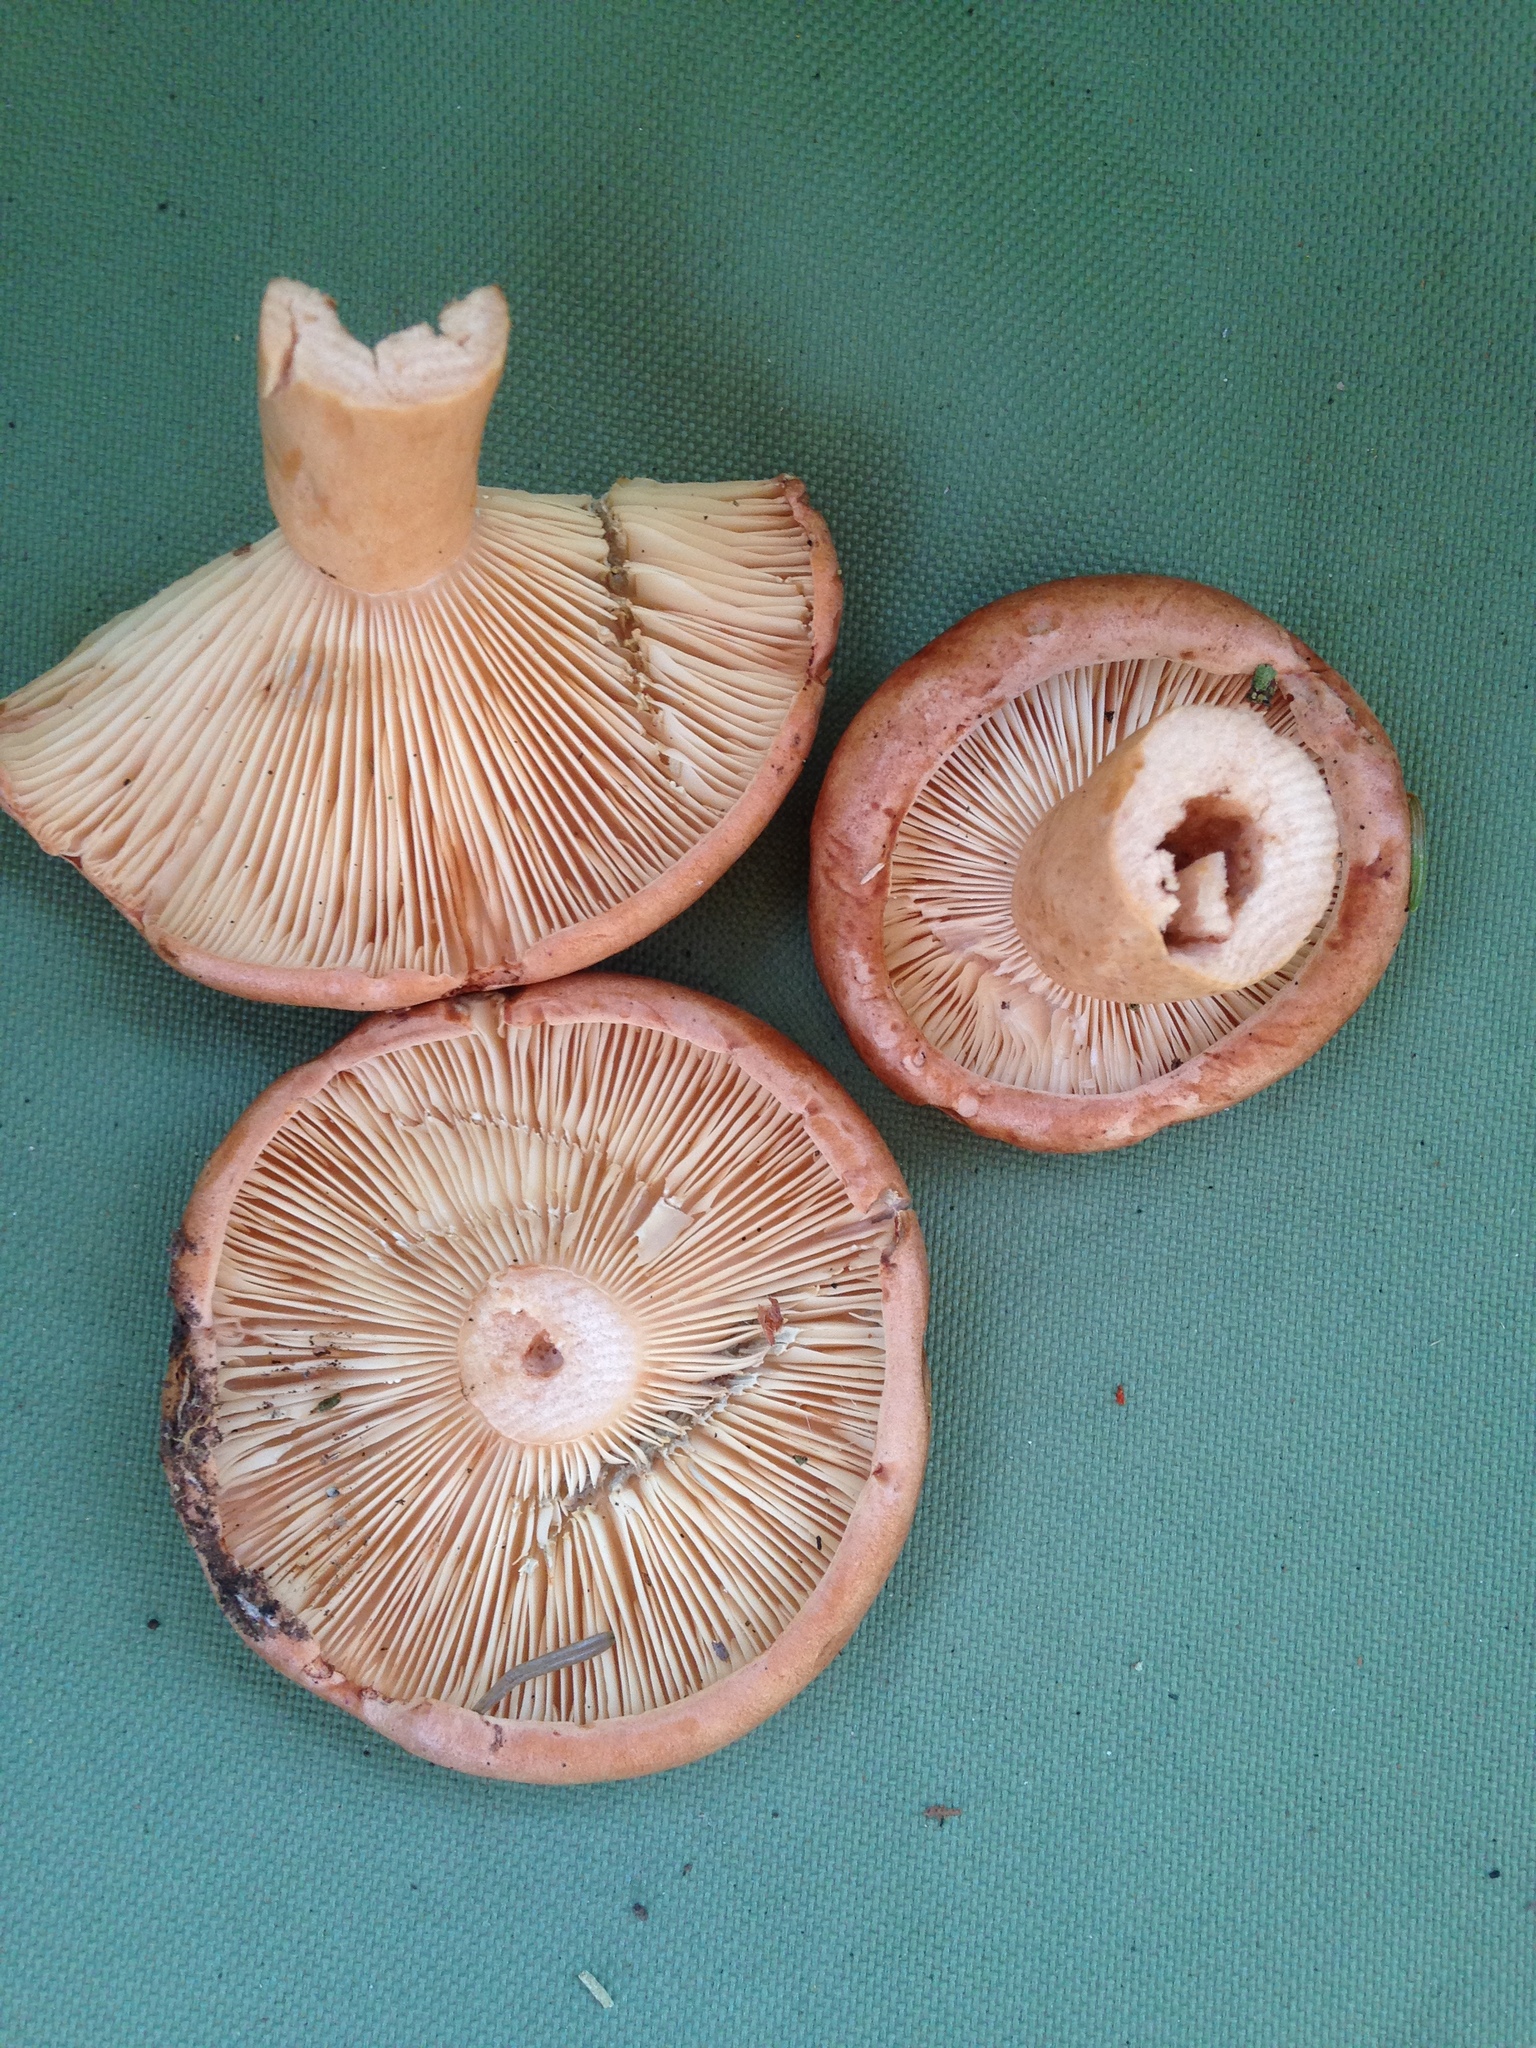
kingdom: Fungi
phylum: Basidiomycota
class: Agaricomycetes
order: Russulales
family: Russulaceae
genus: Lactarius
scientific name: Lactarius mucidus
